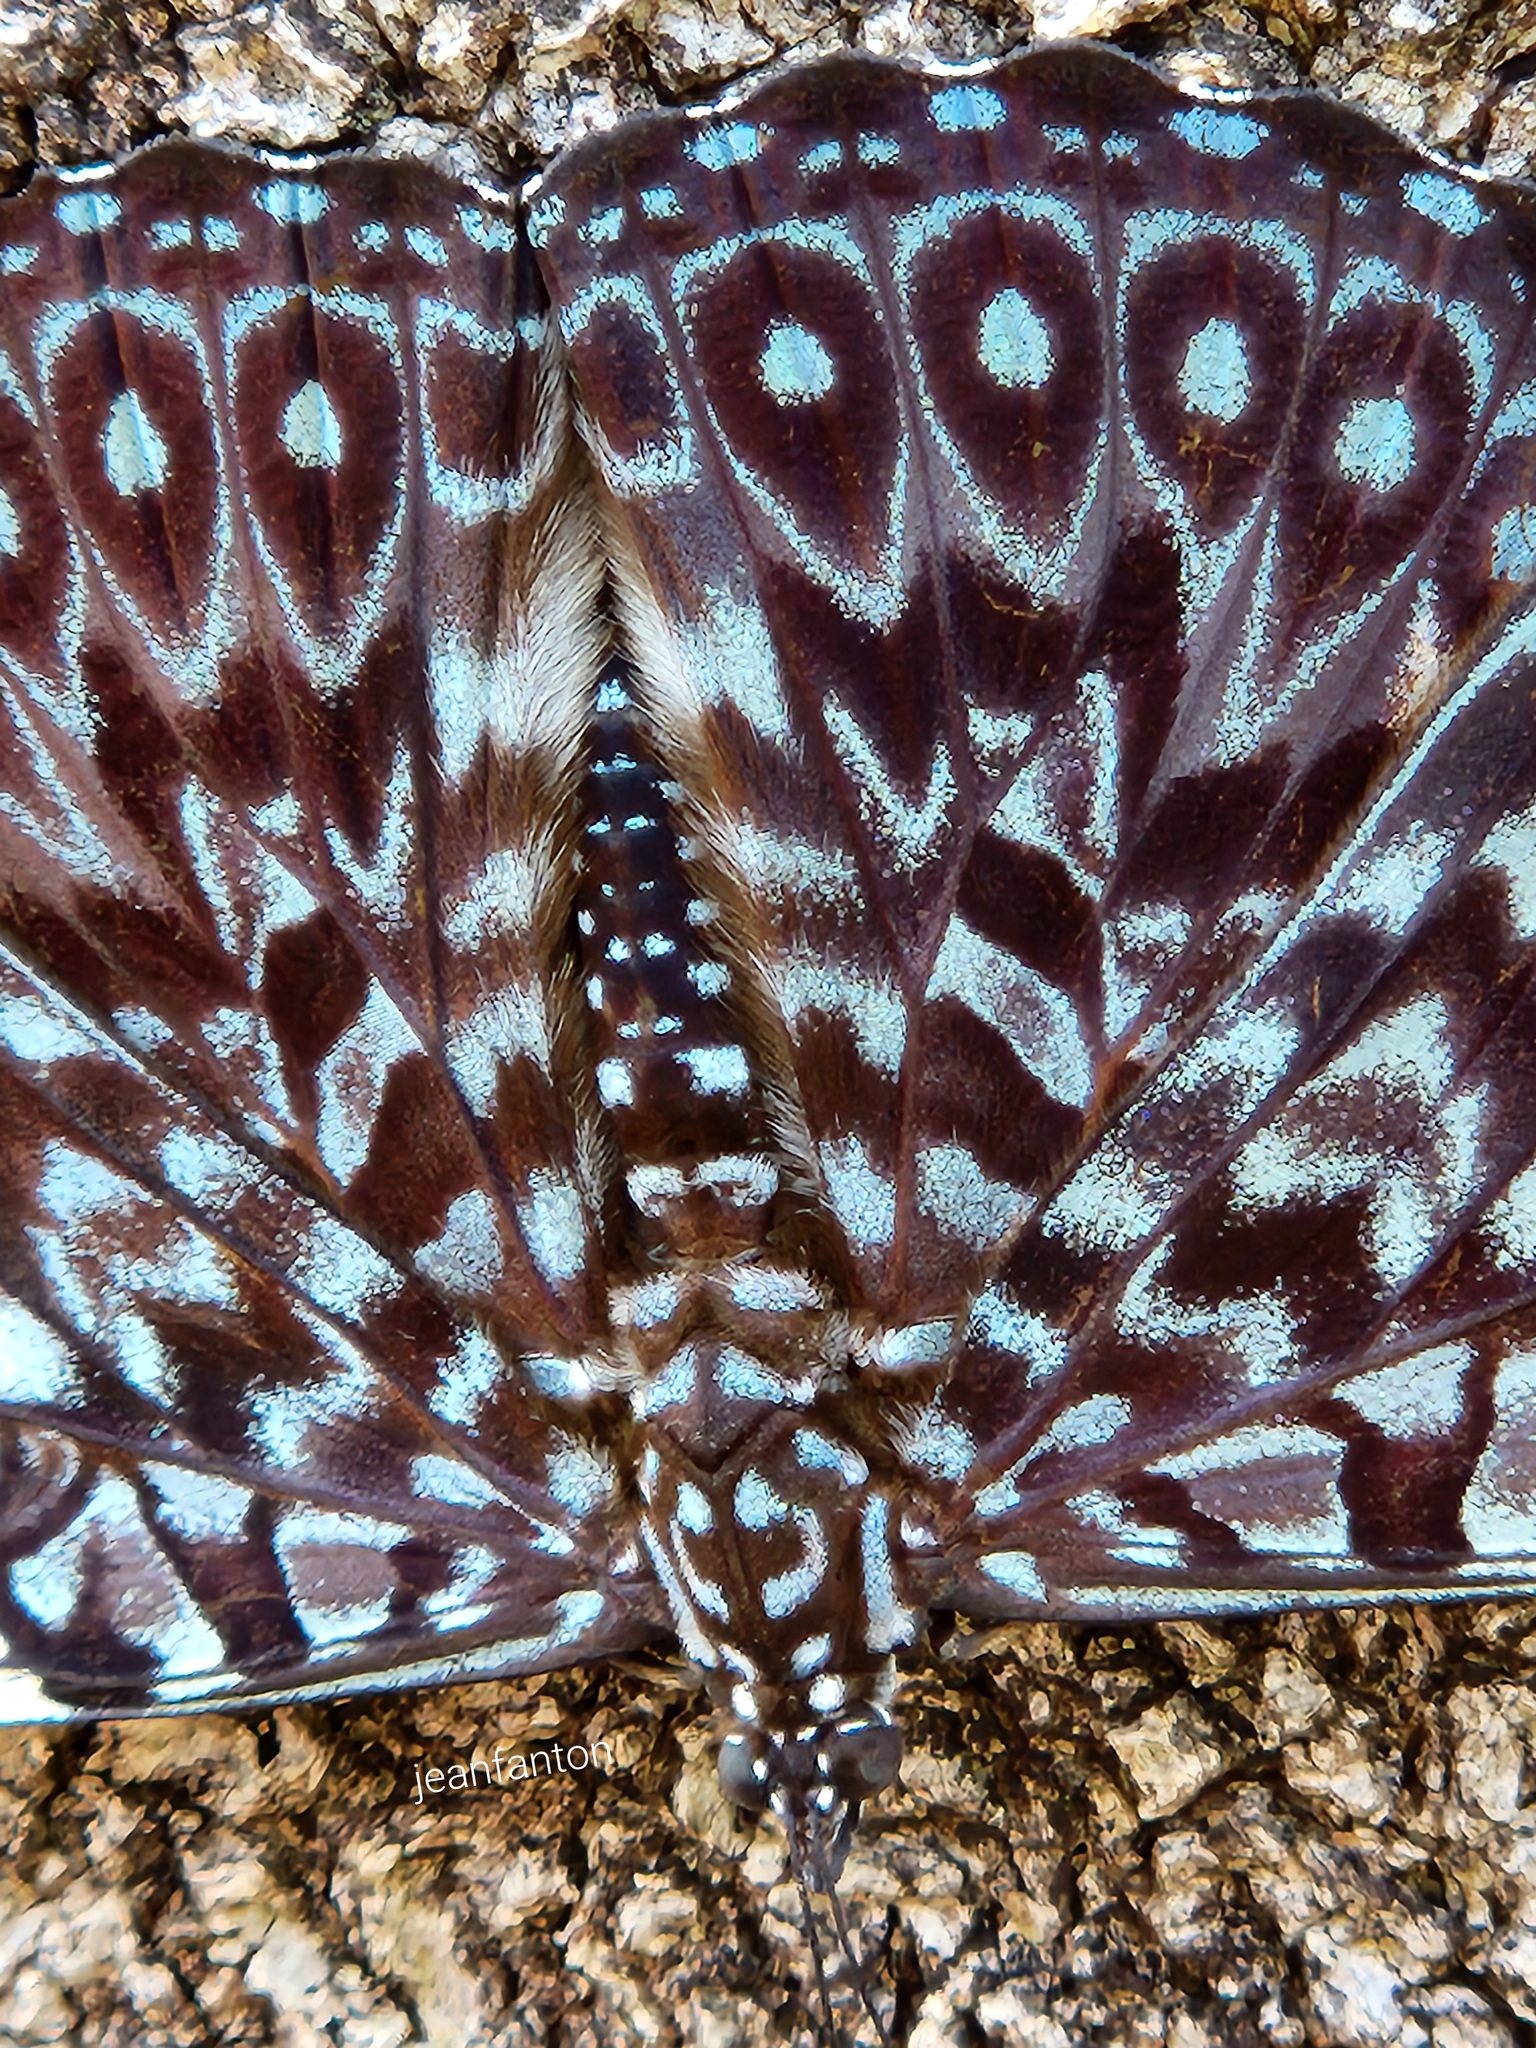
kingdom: Animalia
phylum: Arthropoda
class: Insecta
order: Lepidoptera
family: Nymphalidae
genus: Hamadryas
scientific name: Hamadryas amphinome
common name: Red cracker
